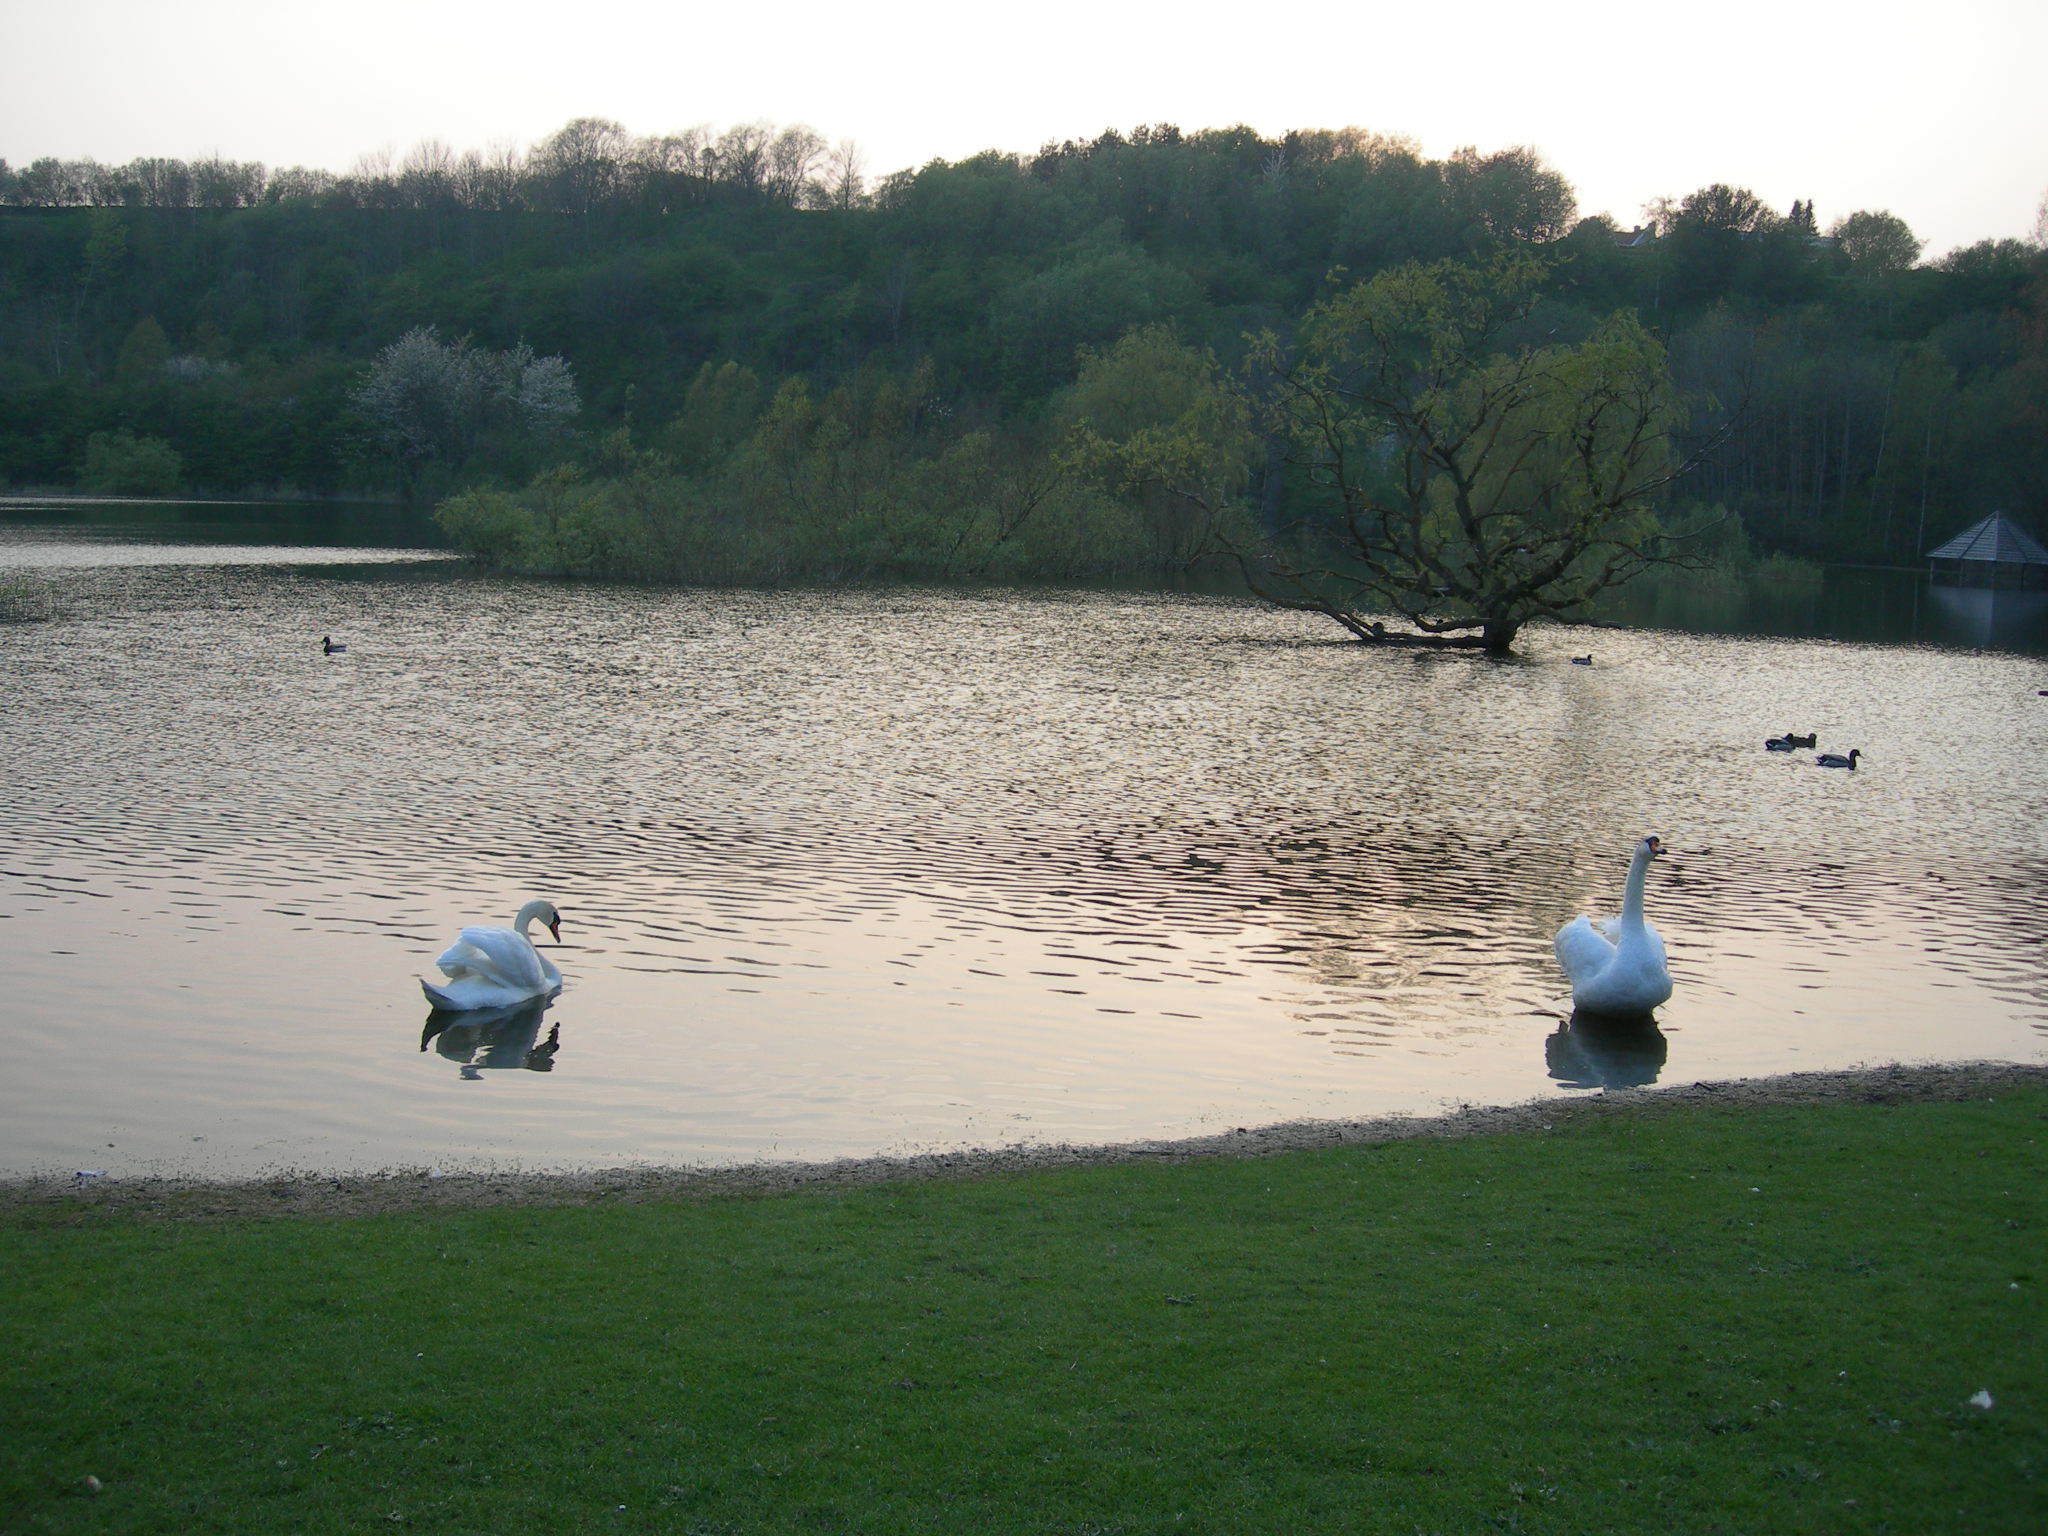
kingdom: Animalia
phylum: Chordata
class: Aves
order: Anseriformes
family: Anatidae
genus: Cygnus
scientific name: Cygnus olor
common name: Mute swan
